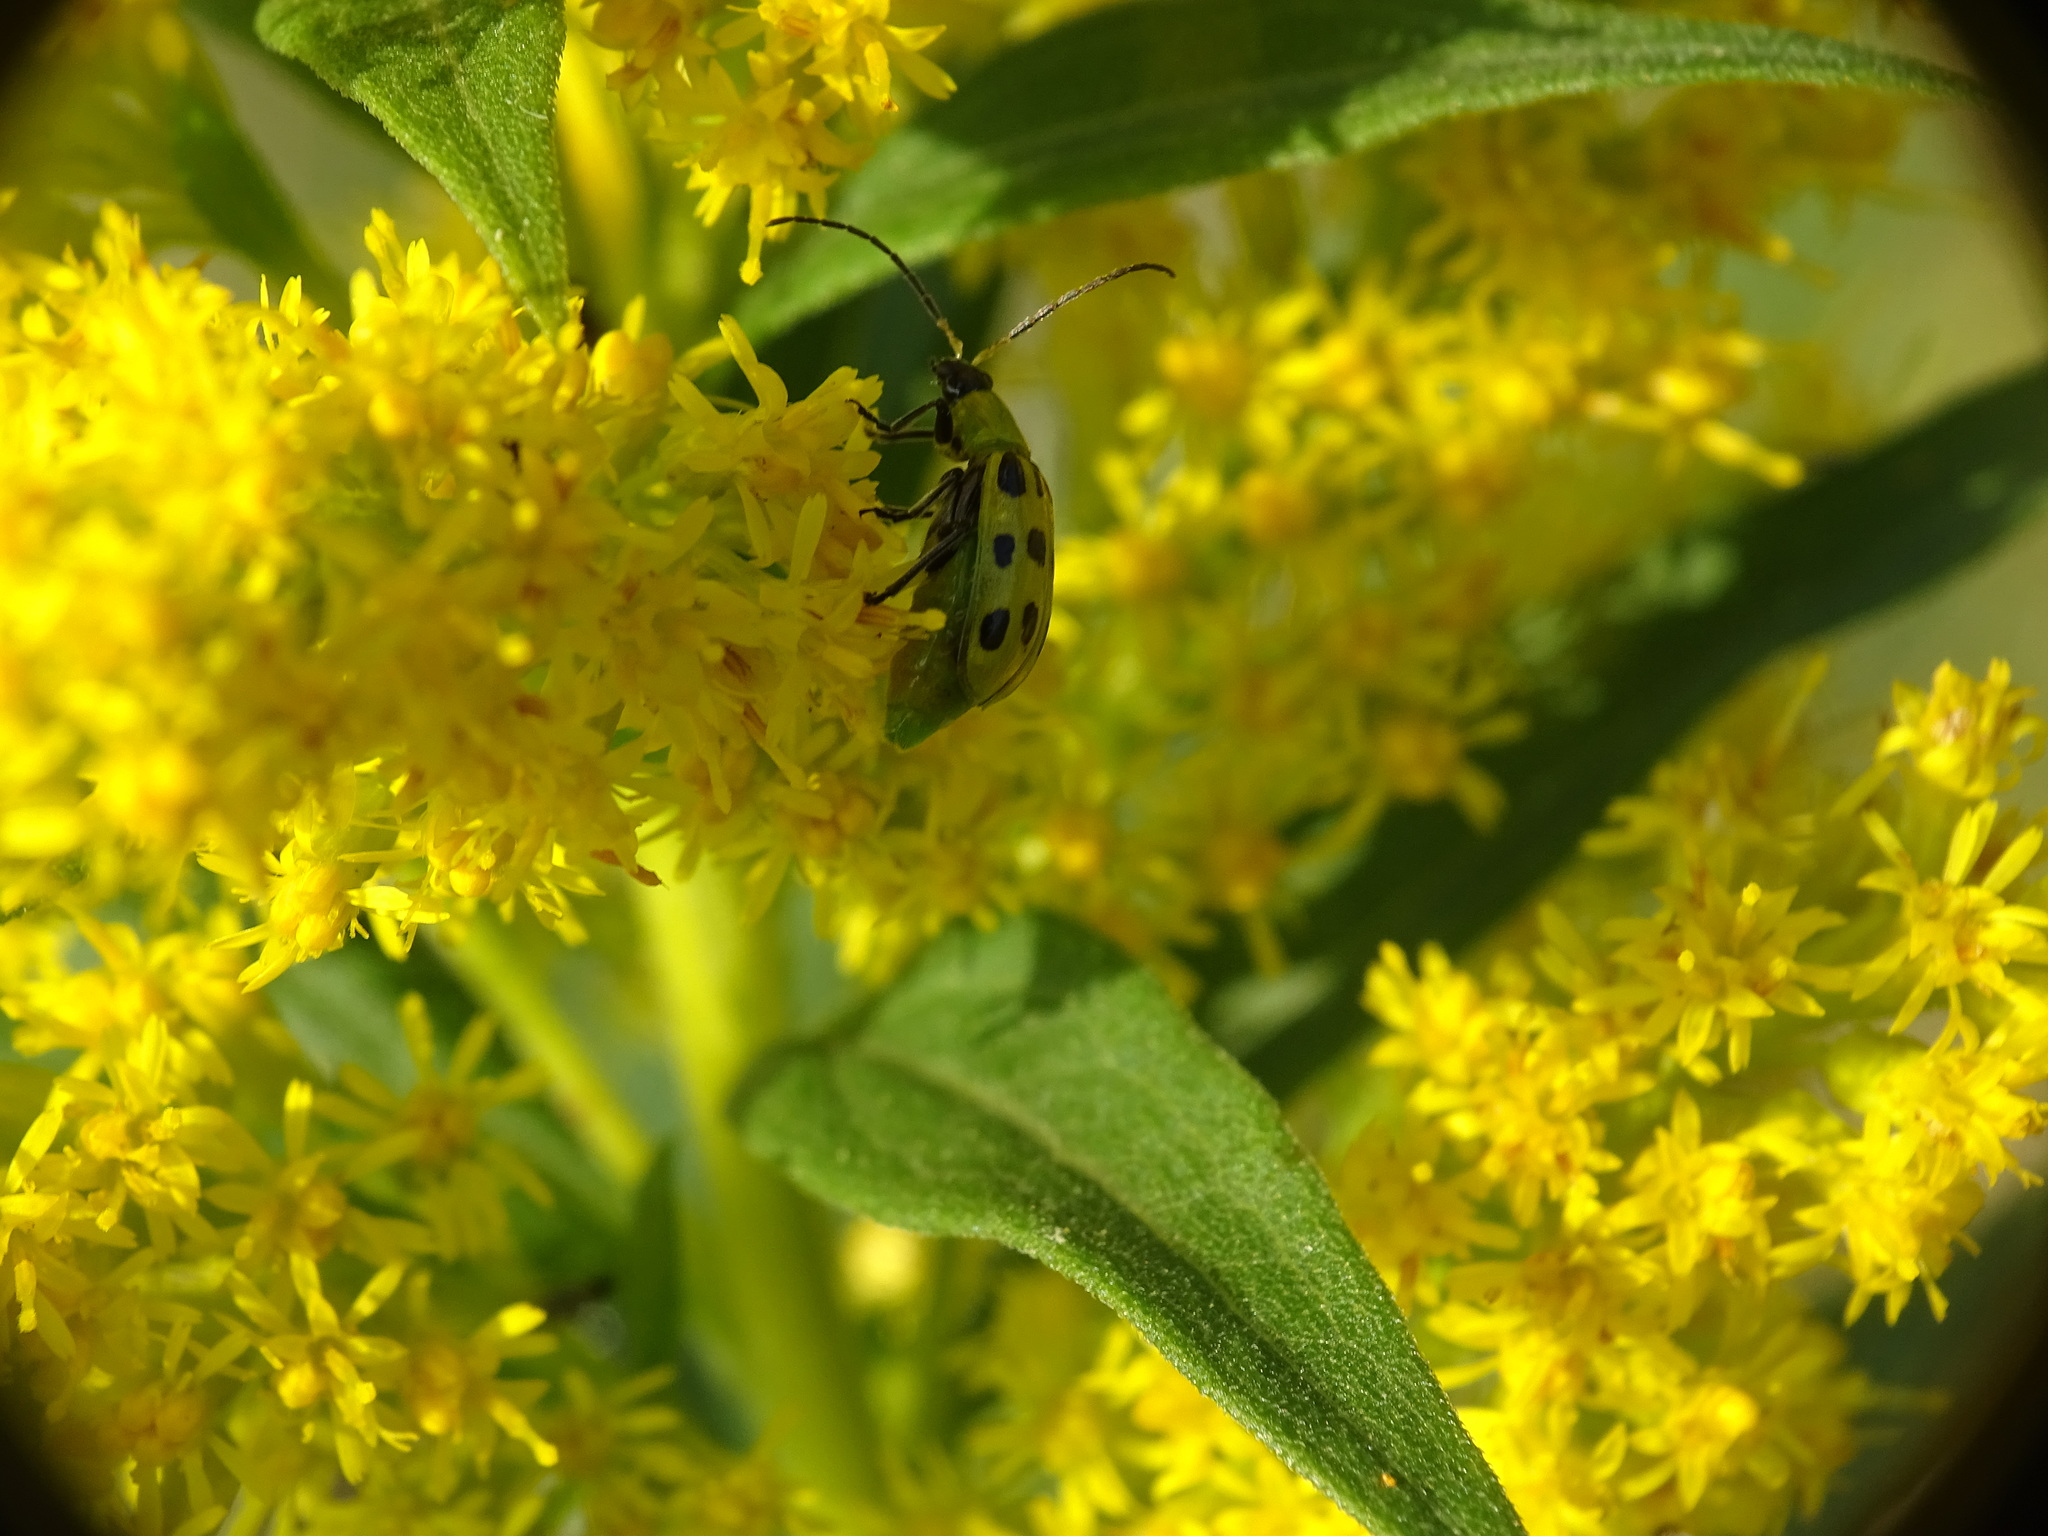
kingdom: Animalia
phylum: Arthropoda
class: Insecta
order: Coleoptera
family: Chrysomelidae
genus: Diabrotica
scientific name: Diabrotica undecimpunctata
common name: Spotted cucumber beetle
